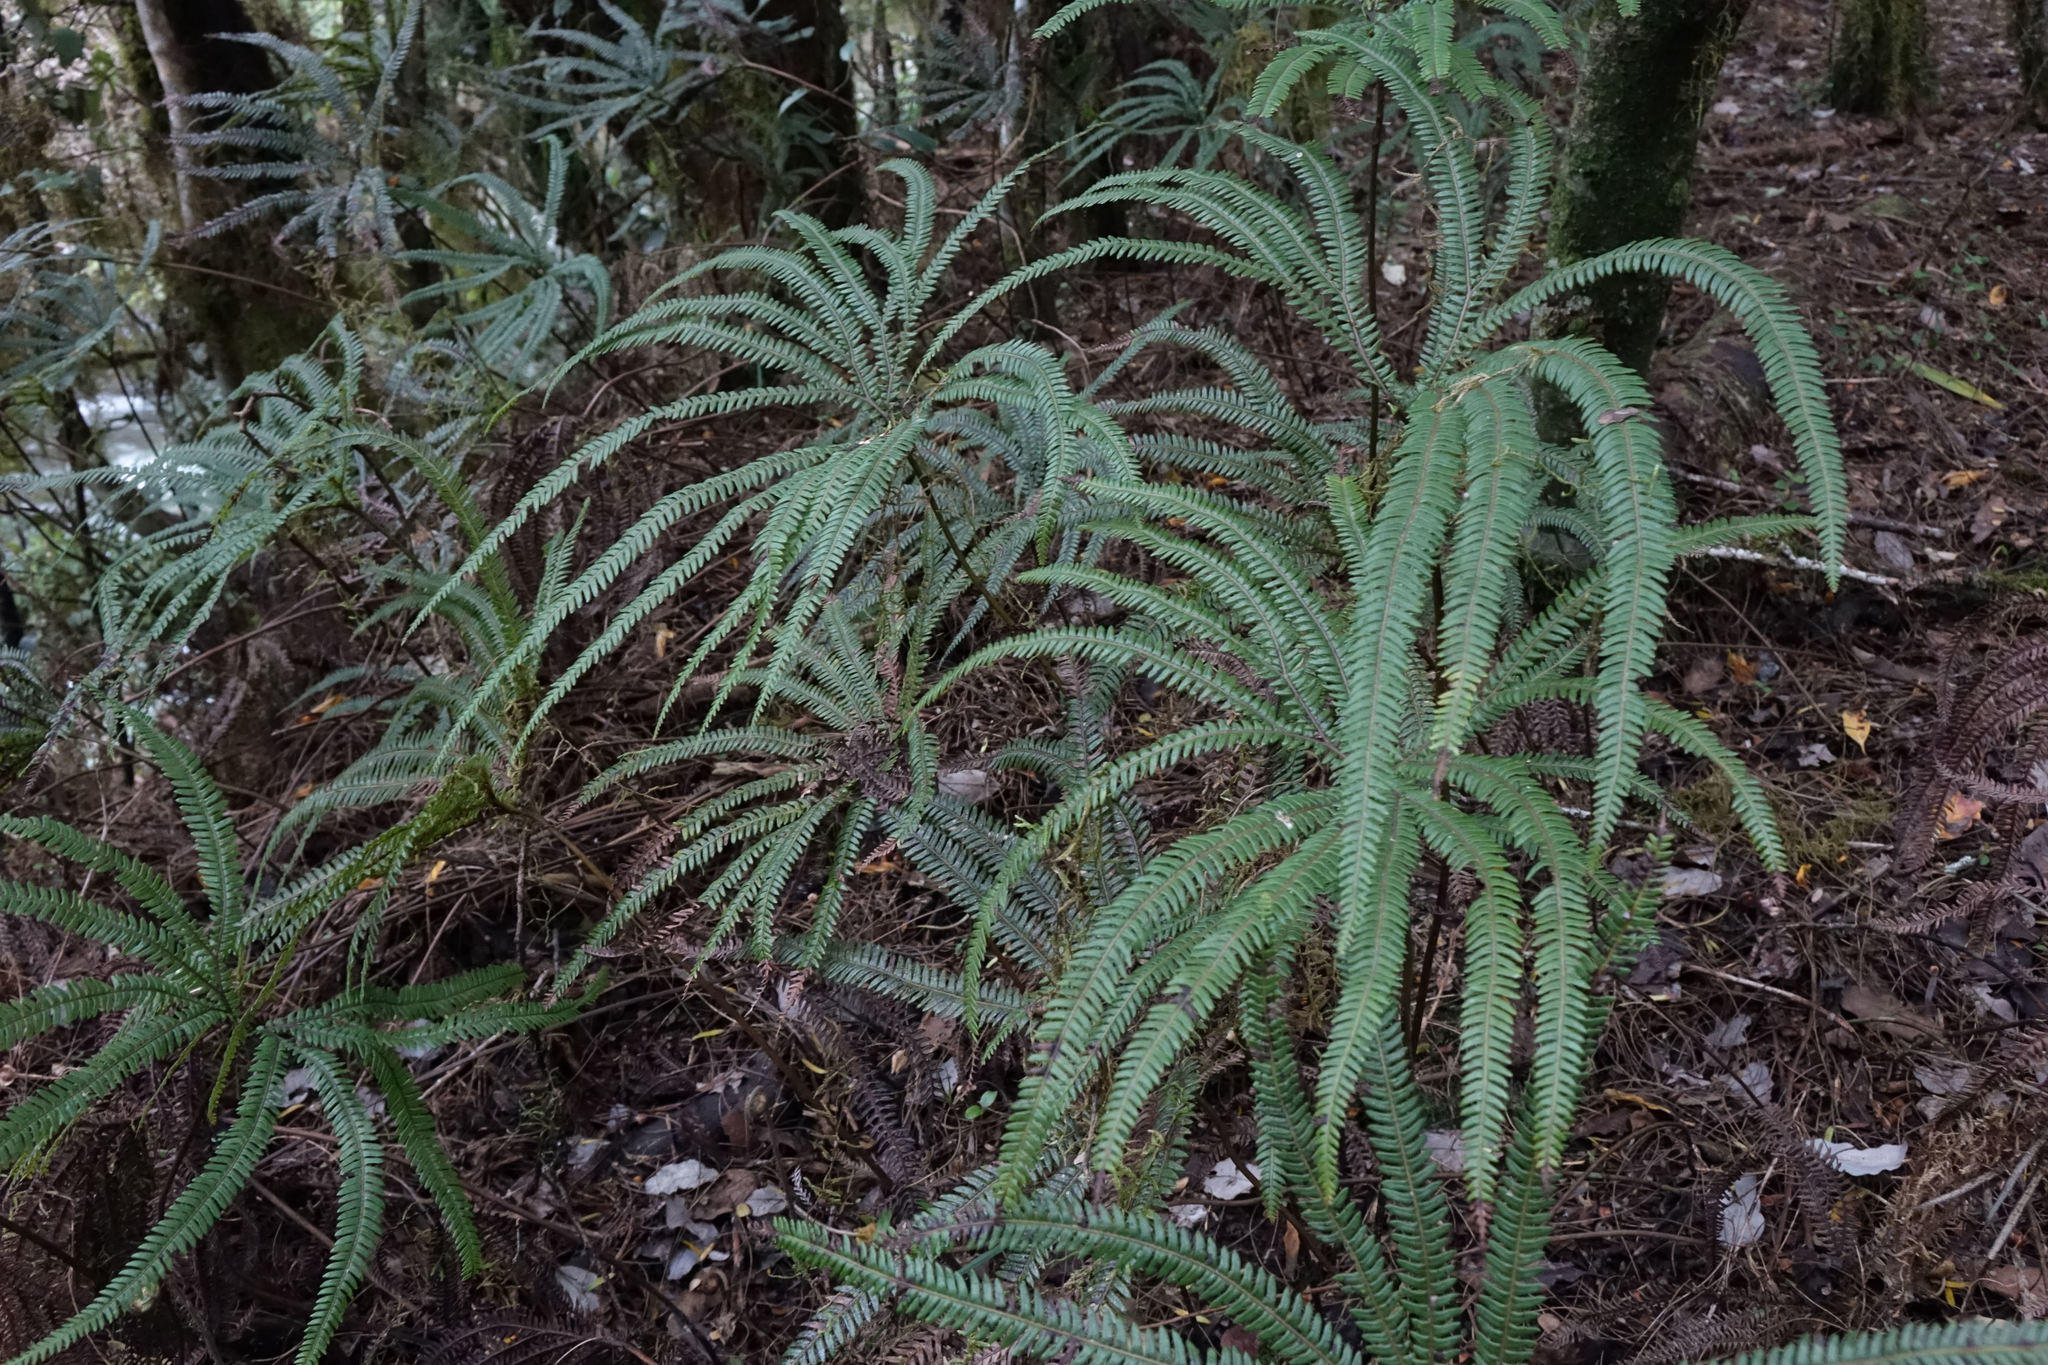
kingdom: Plantae
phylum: Tracheophyta
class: Polypodiopsida
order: Gleicheniales
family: Gleicheniaceae
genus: Sticherus
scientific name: Sticherus cunninghamii
